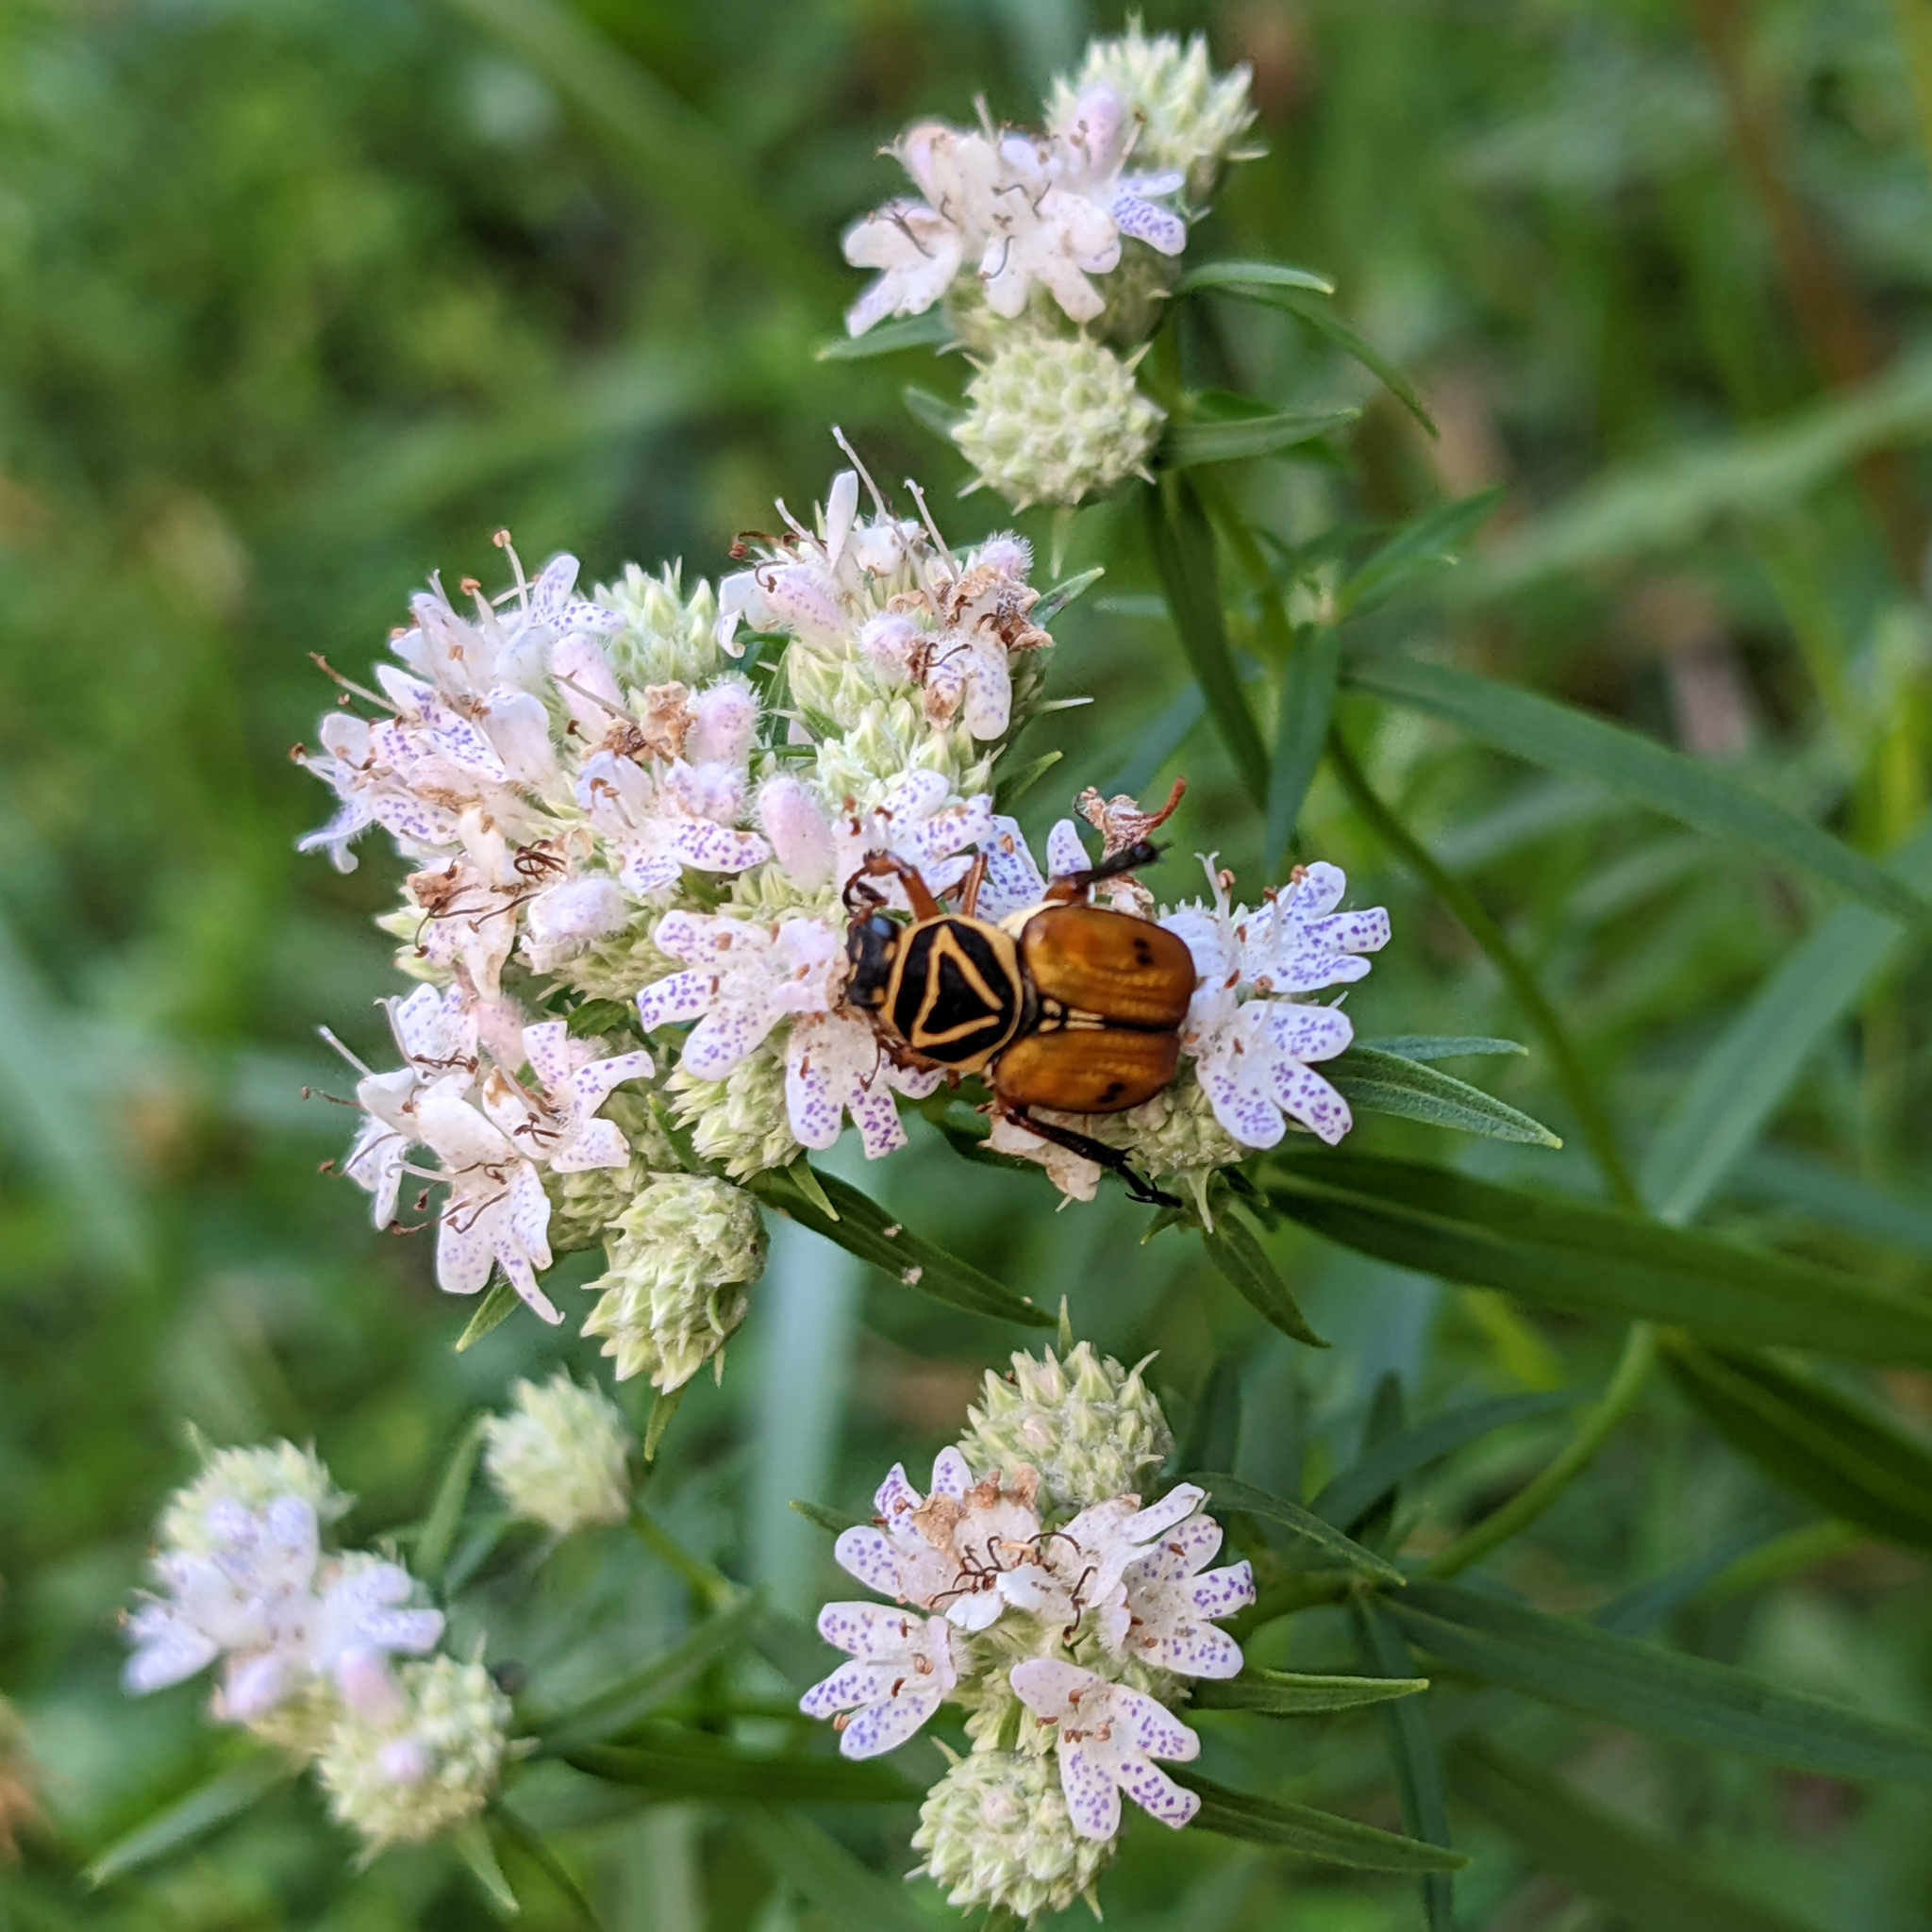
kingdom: Animalia
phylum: Arthropoda
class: Insecta
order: Coleoptera
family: Scarabaeidae
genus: Trigonopeltastes
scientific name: Trigonopeltastes delta
